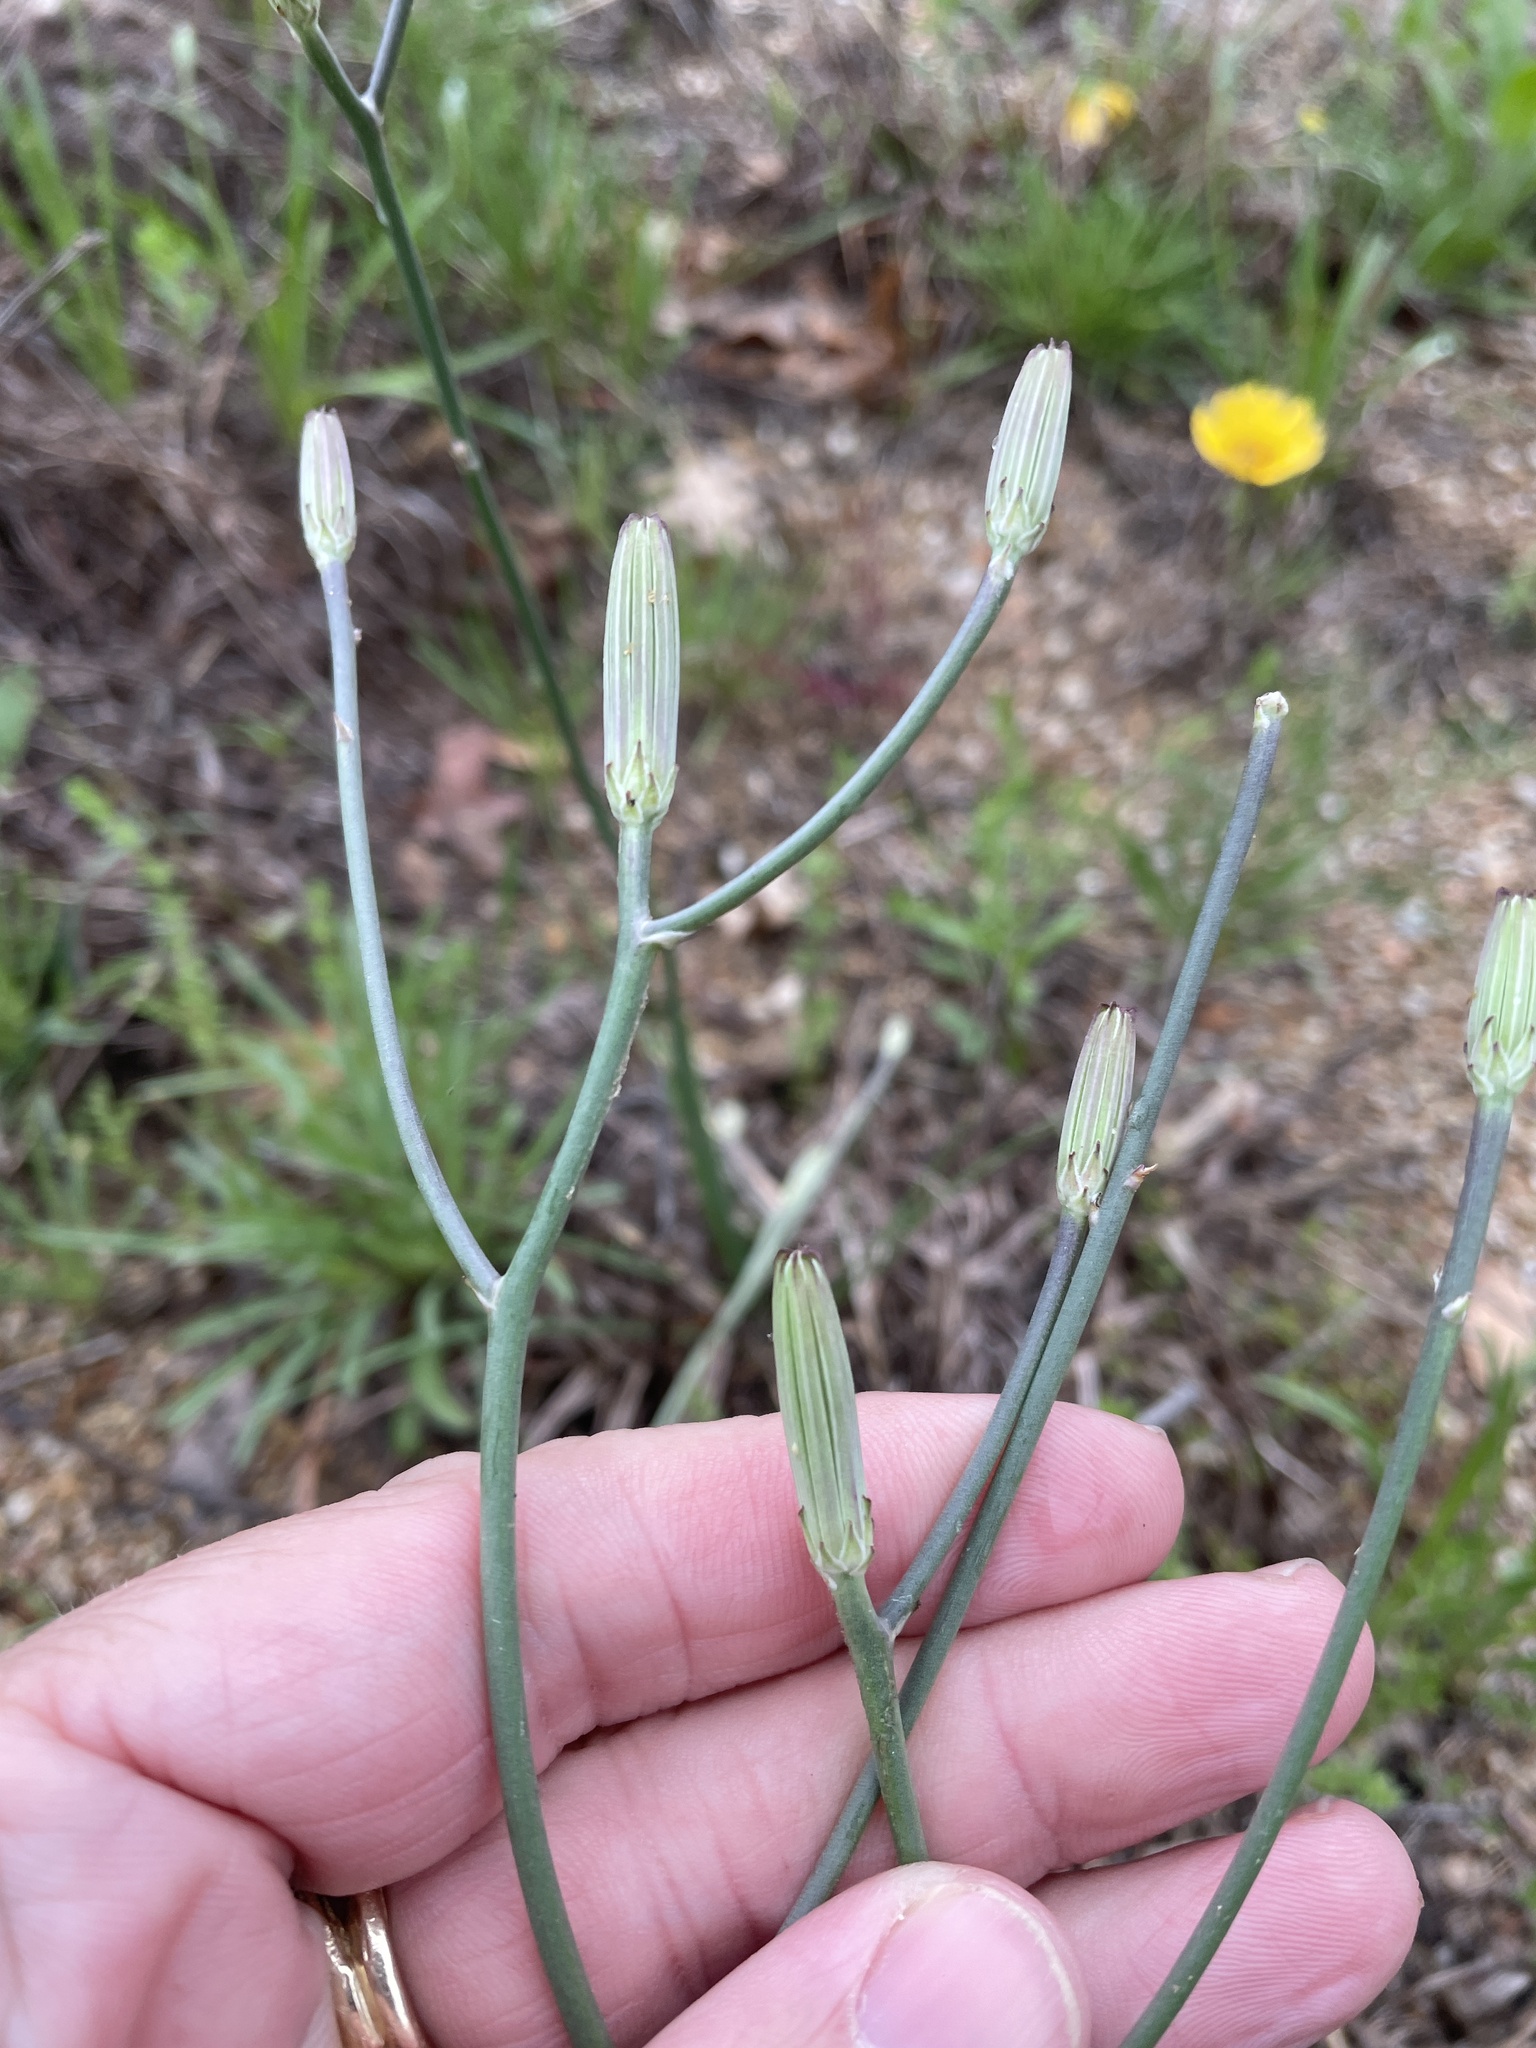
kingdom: Plantae
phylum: Tracheophyta
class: Magnoliopsida
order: Asterales
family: Asteraceae
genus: Lygodesmia
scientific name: Lygodesmia texana
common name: Texas skeleton-plant
